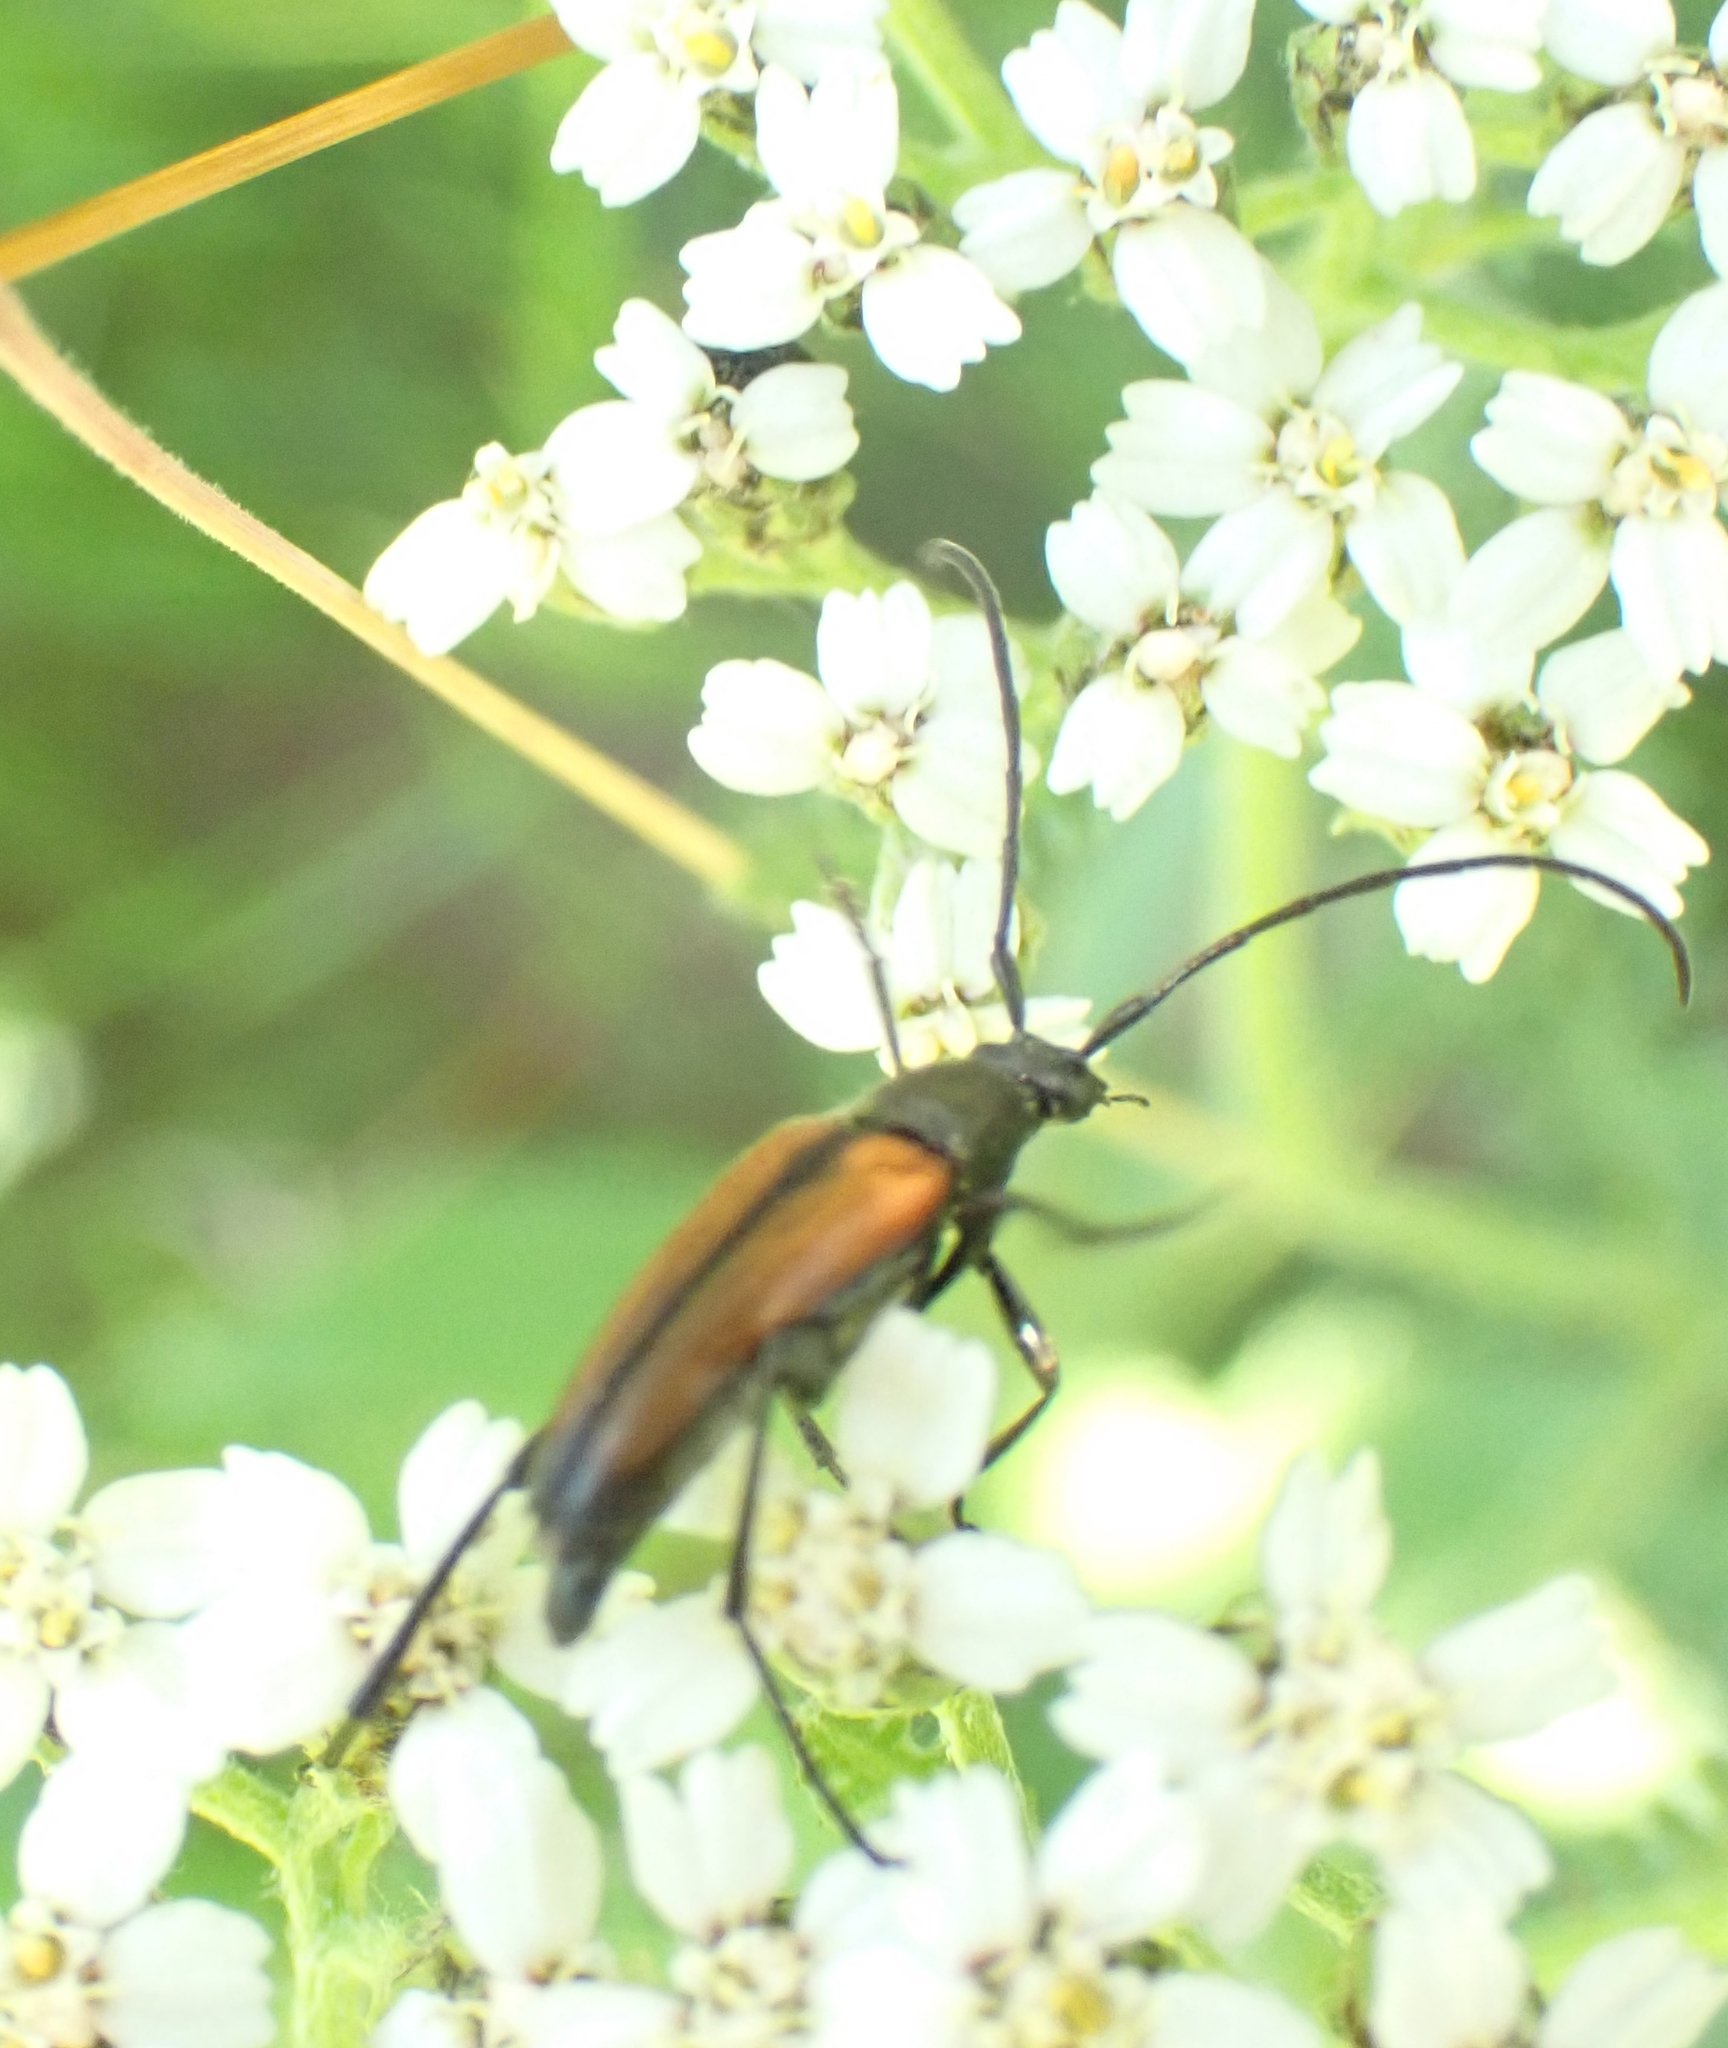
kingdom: Animalia
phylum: Arthropoda
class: Insecta
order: Coleoptera
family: Cerambycidae
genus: Stenurella
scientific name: Stenurella melanura
